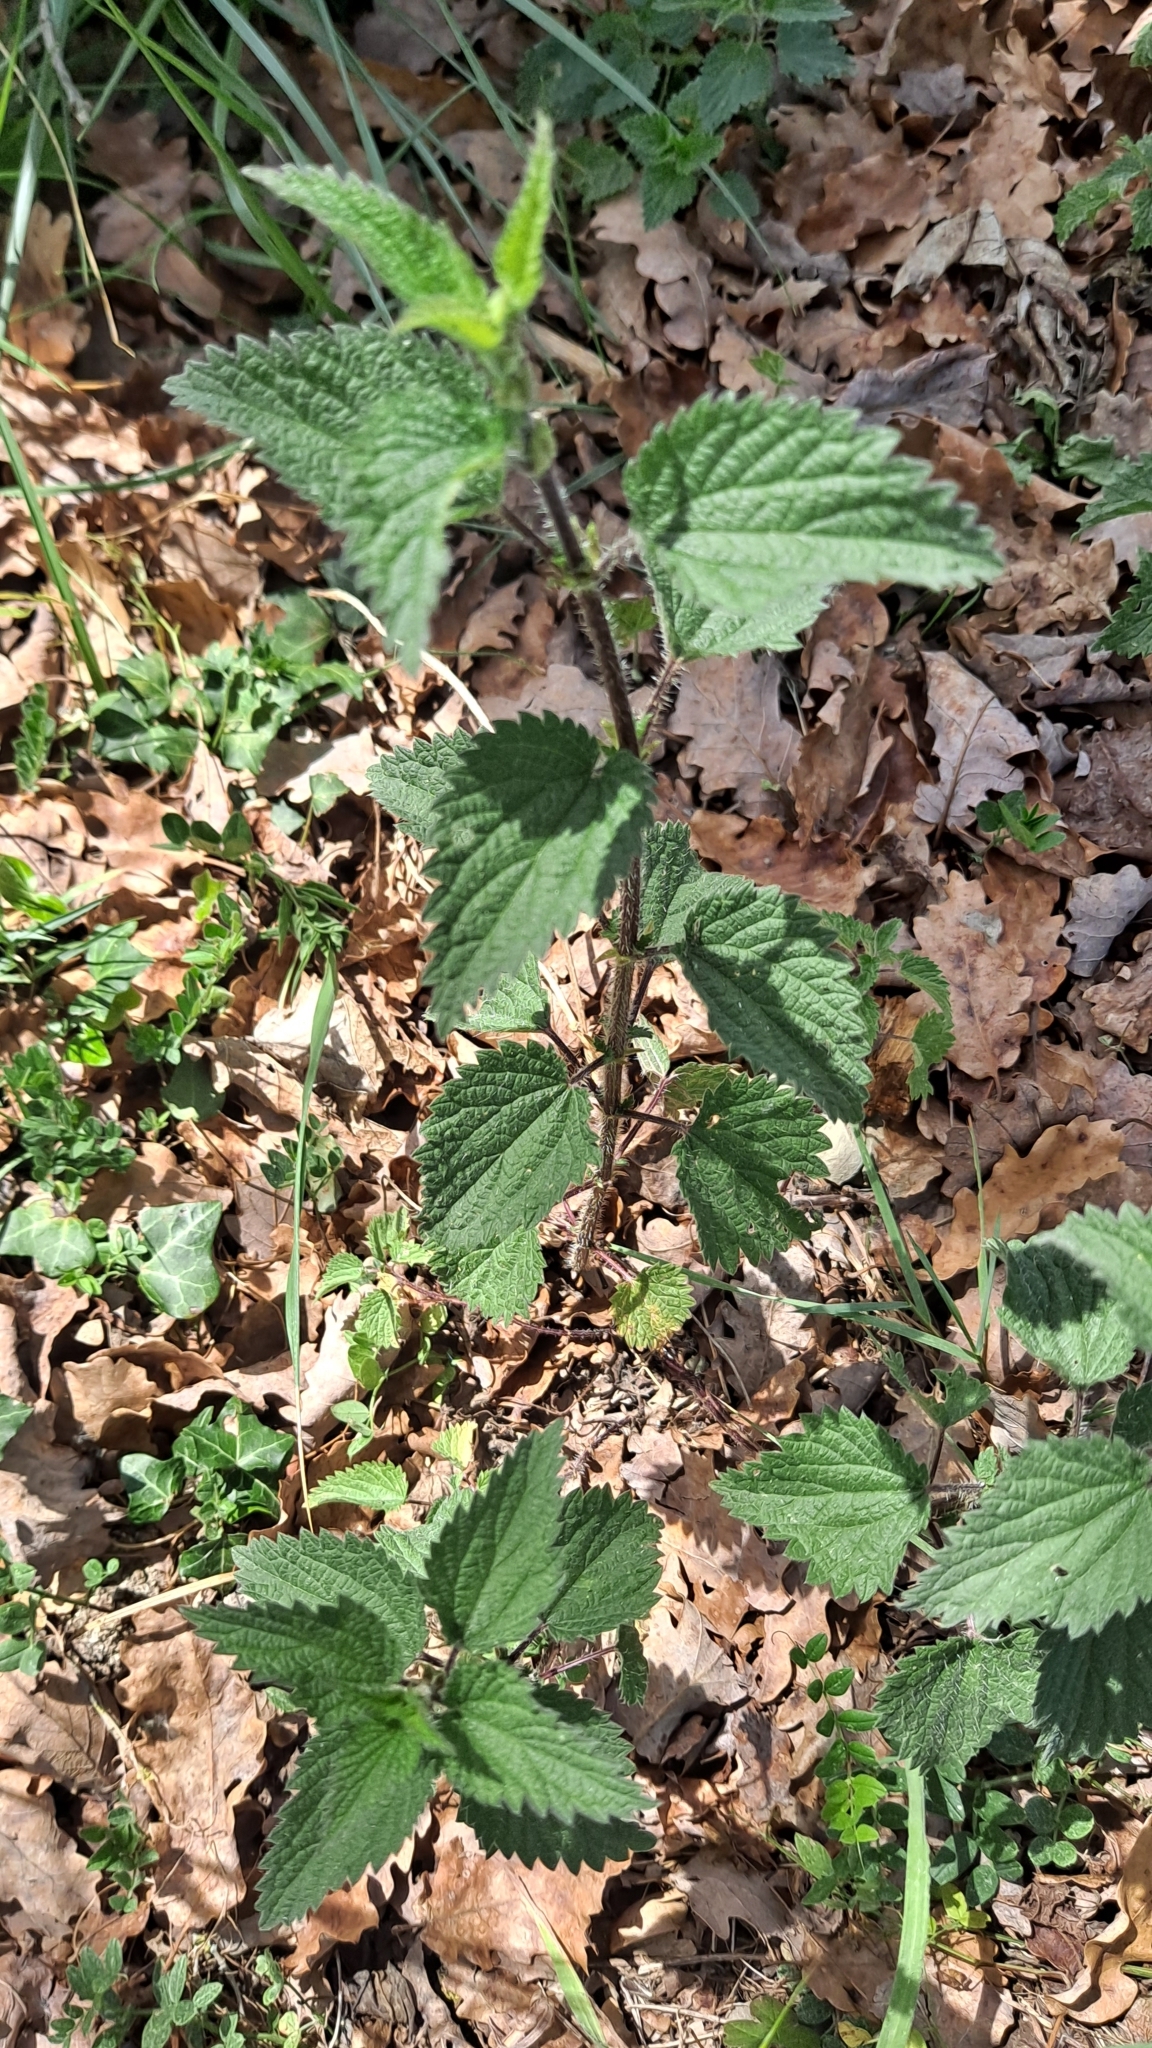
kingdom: Plantae
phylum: Tracheophyta
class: Magnoliopsida
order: Rosales
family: Urticaceae
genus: Urtica
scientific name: Urtica dioica
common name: Common nettle
